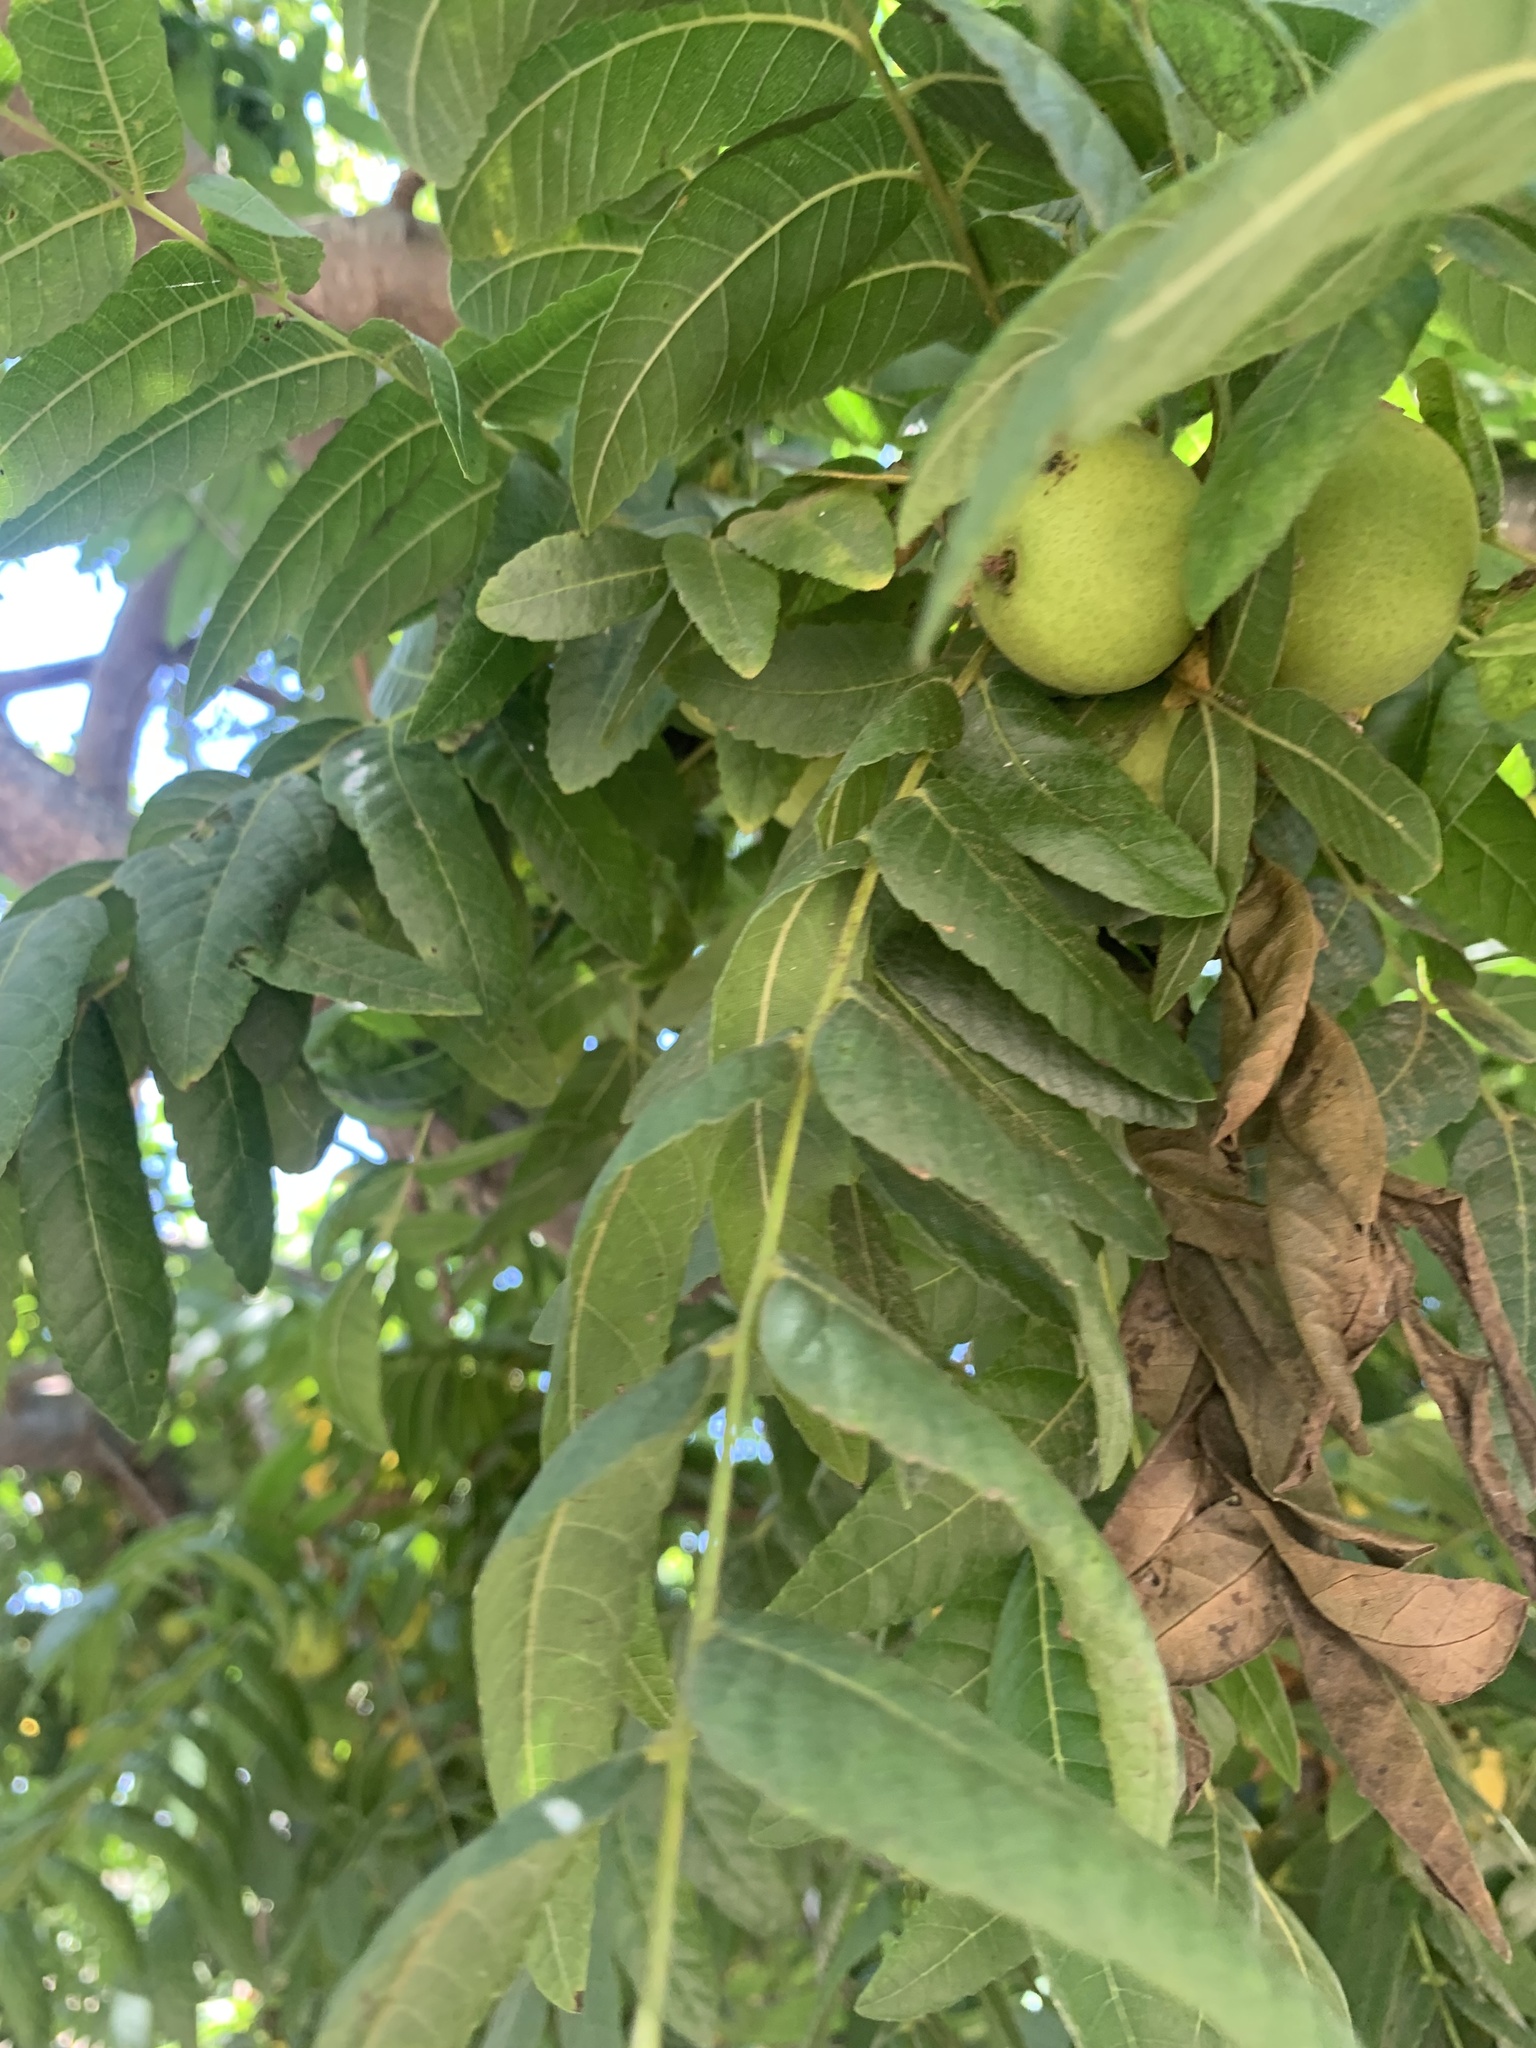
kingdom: Plantae
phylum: Tracheophyta
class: Magnoliopsida
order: Fagales
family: Juglandaceae
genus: Juglans
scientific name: Juglans californica
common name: Southern california black walnut
